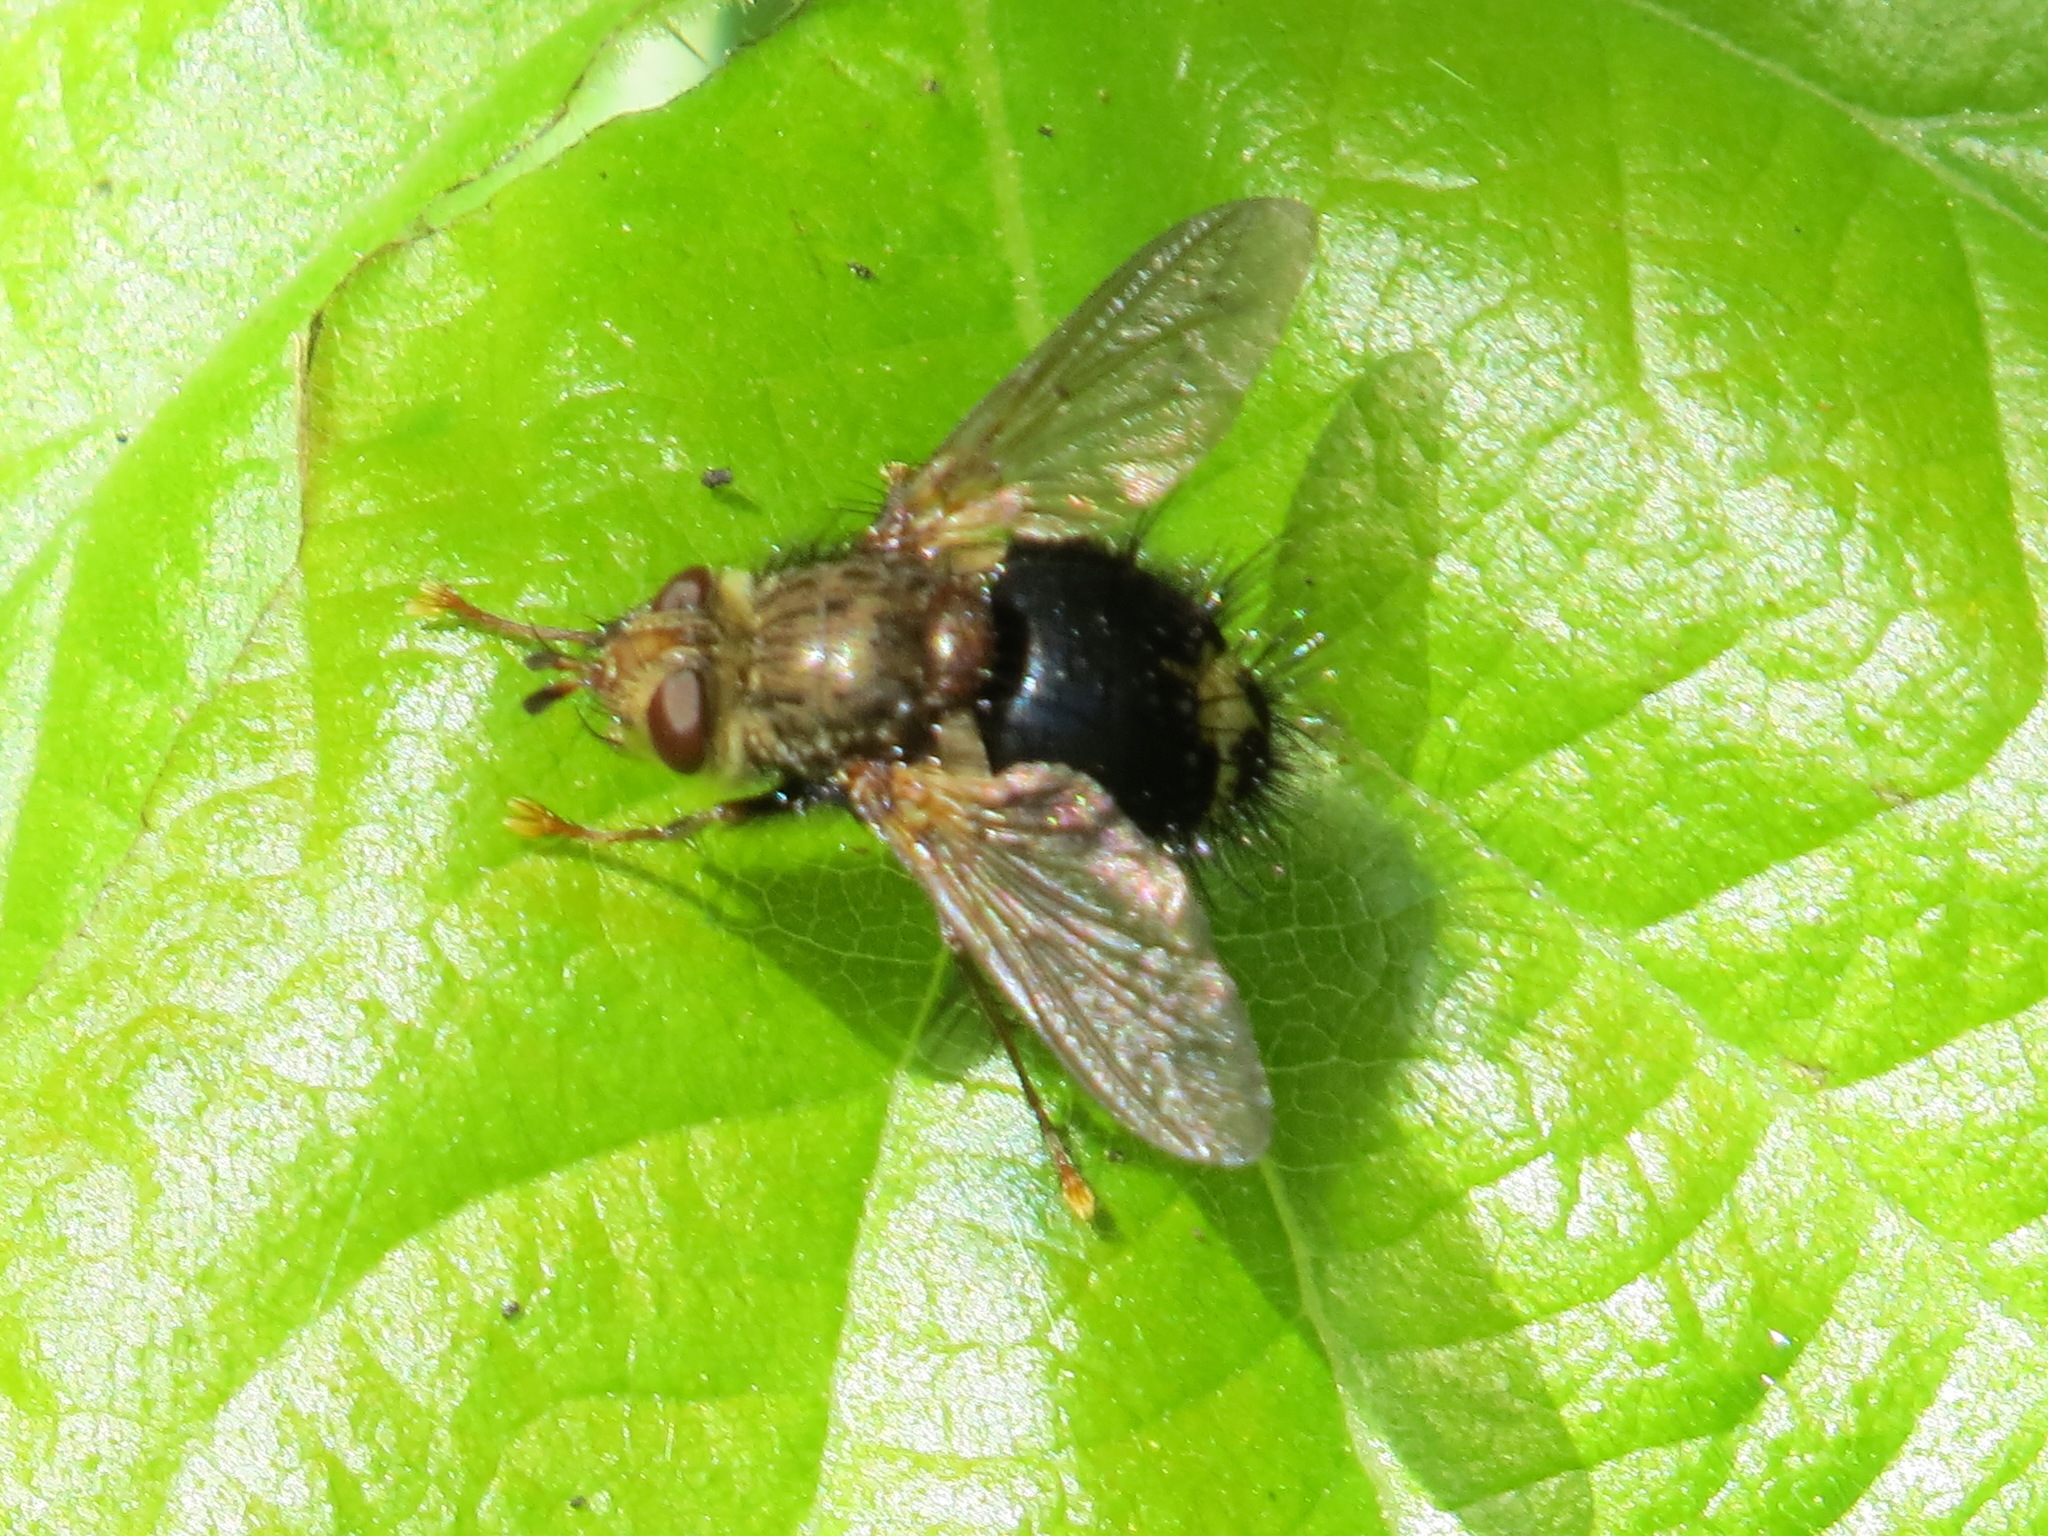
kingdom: Animalia
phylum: Arthropoda
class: Insecta
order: Diptera
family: Tachinidae
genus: Epalpus
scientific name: Epalpus signifer
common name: Early tachinid fly
